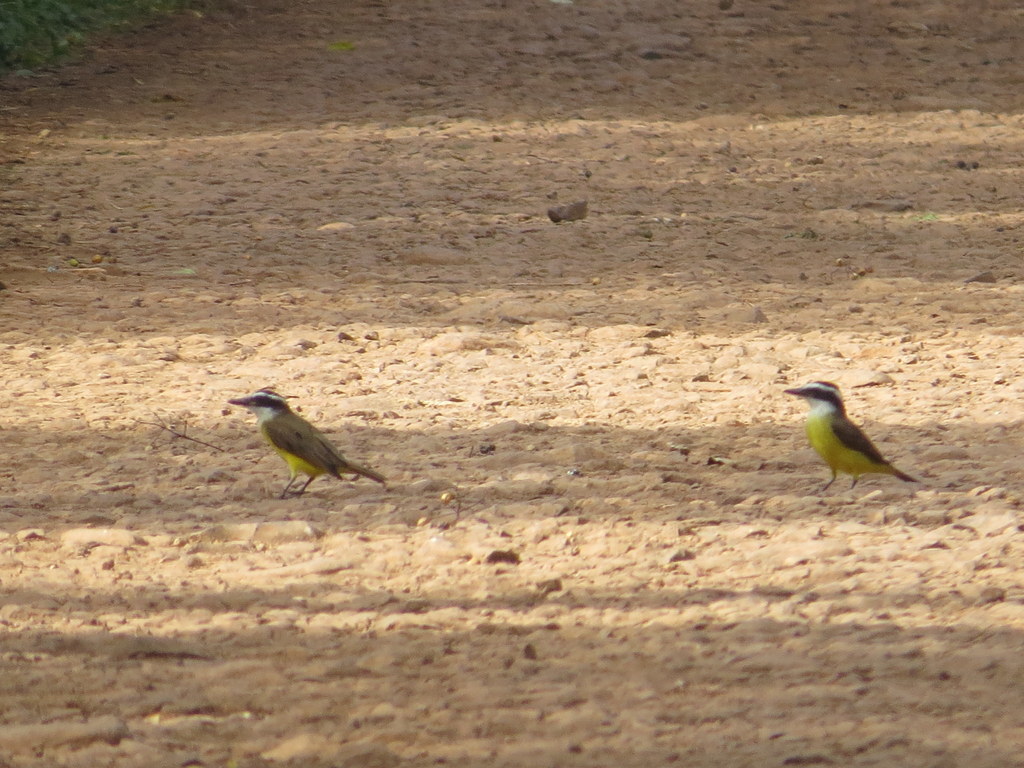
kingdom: Animalia
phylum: Chordata
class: Aves
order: Passeriformes
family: Tyrannidae
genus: Pitangus
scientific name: Pitangus sulphuratus
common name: Great kiskadee
